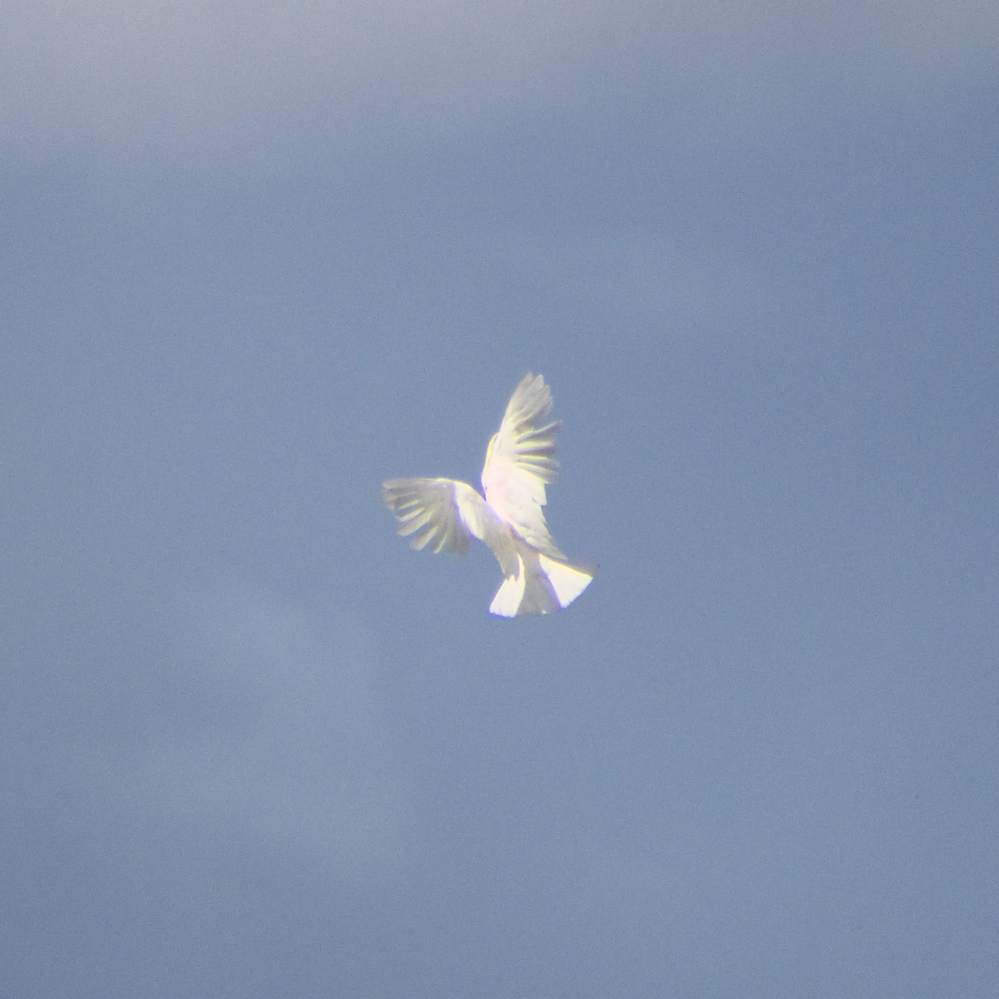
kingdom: Animalia
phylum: Chordata
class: Aves
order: Psittaciformes
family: Psittacidae
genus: Cacatua
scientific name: Cacatua galerita
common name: Sulphur-crested cockatoo
